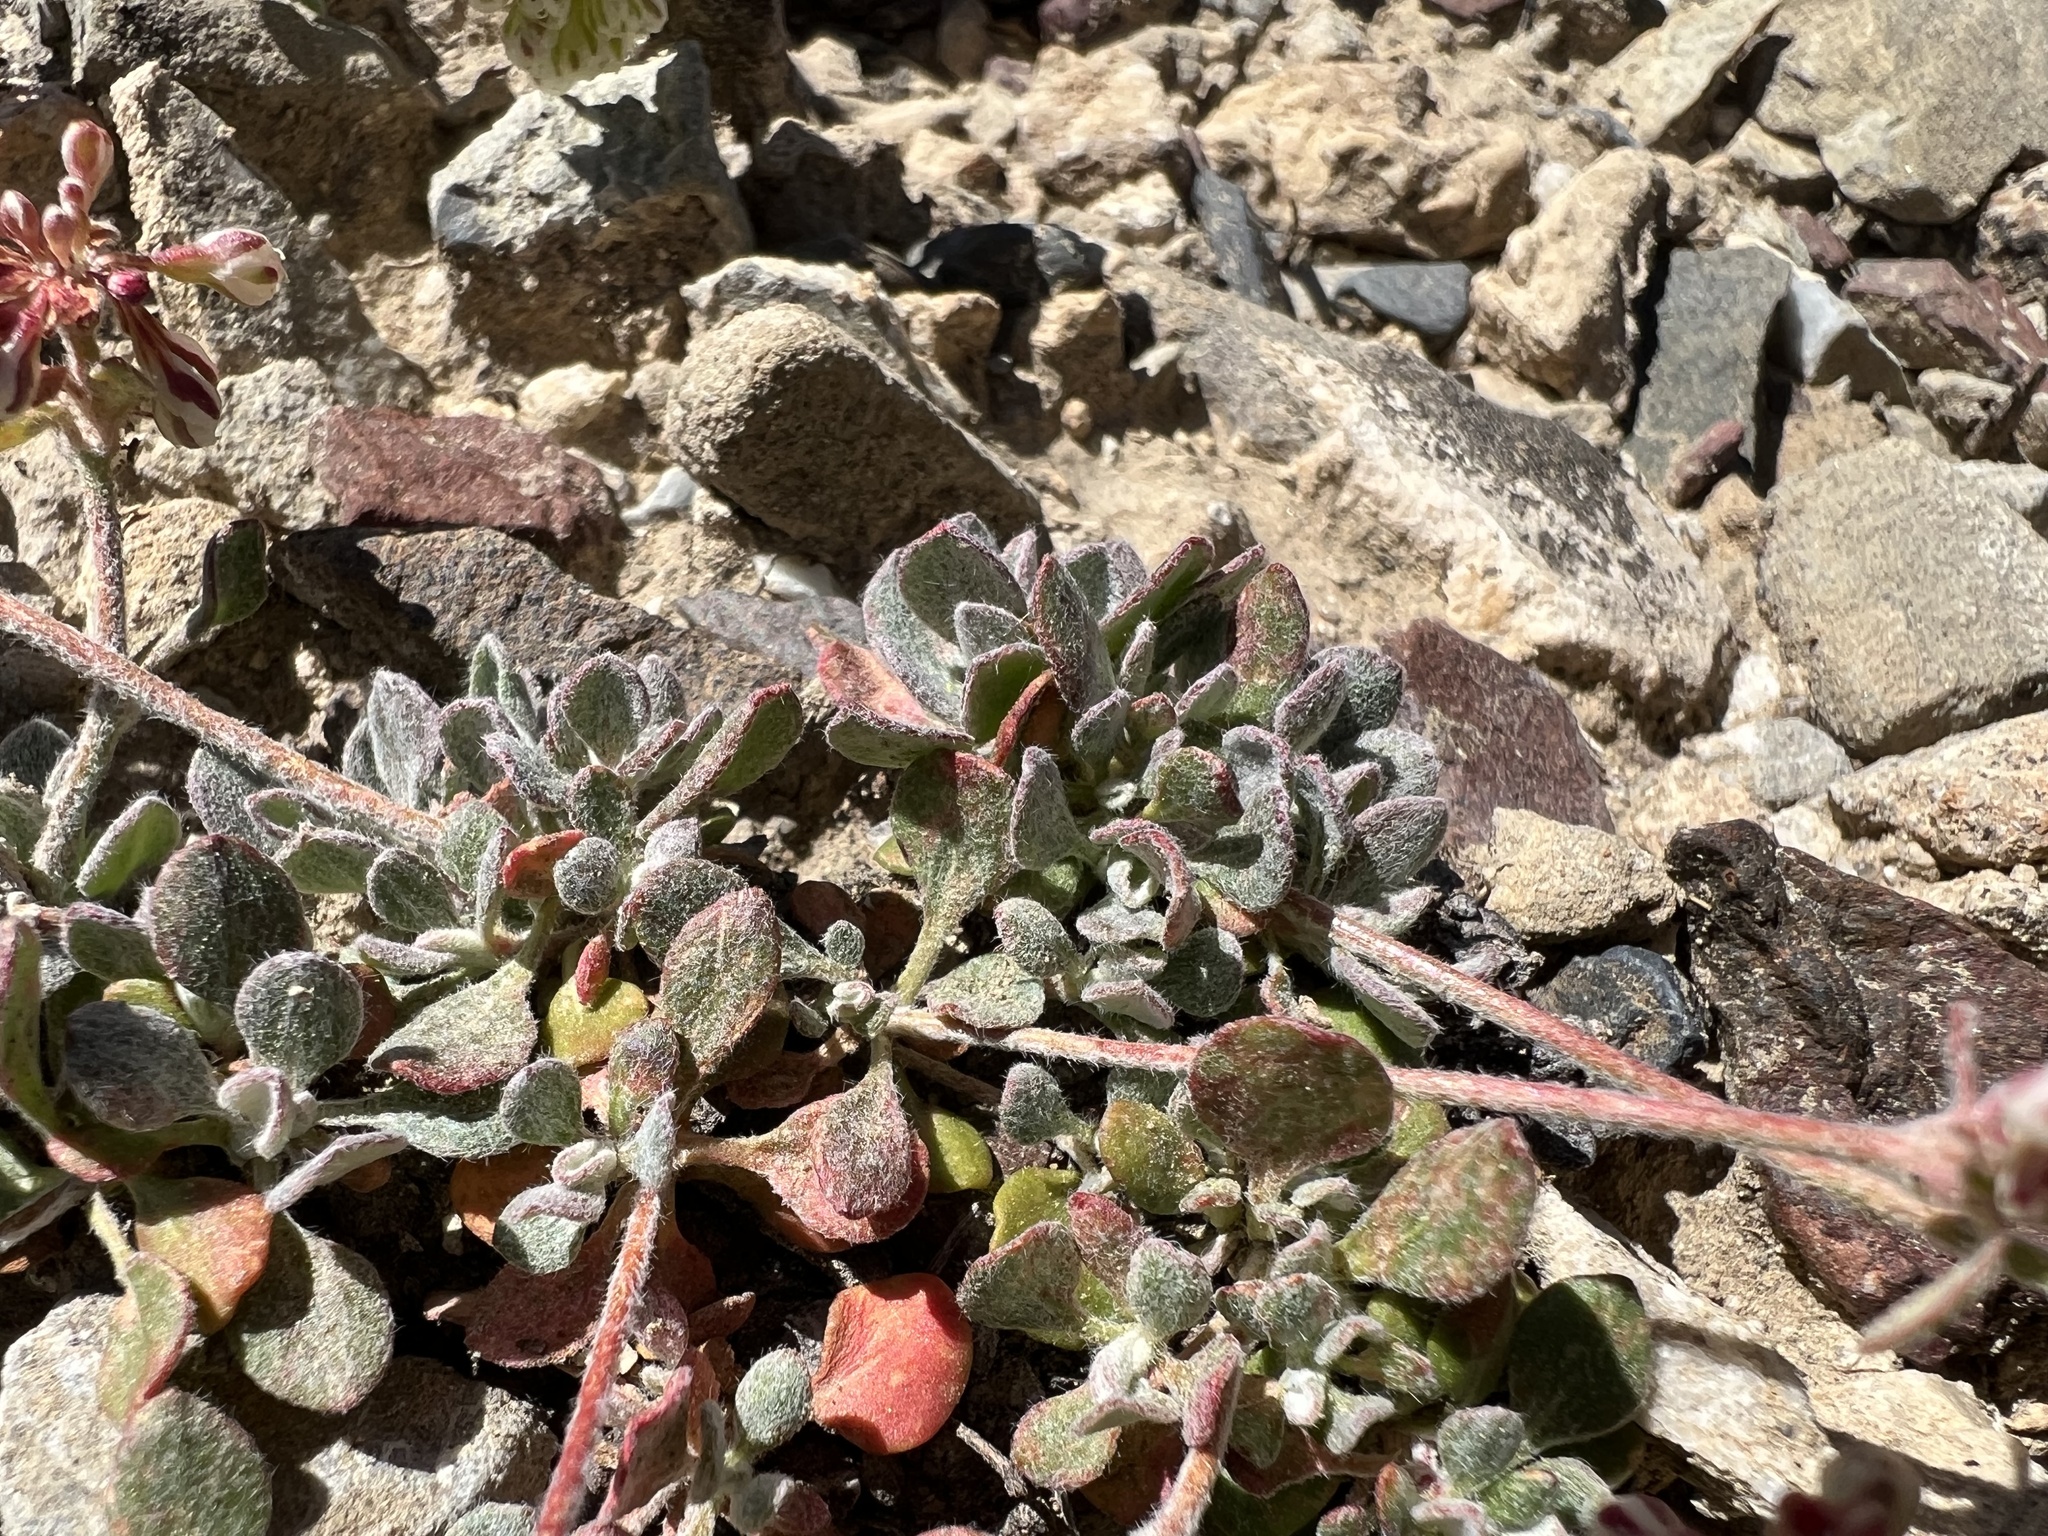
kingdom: Plantae
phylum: Tracheophyta
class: Magnoliopsida
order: Caryophyllales
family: Polygonaceae
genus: Eriogonum
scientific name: Eriogonum umbellatum
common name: Sulfur-buckwheat
